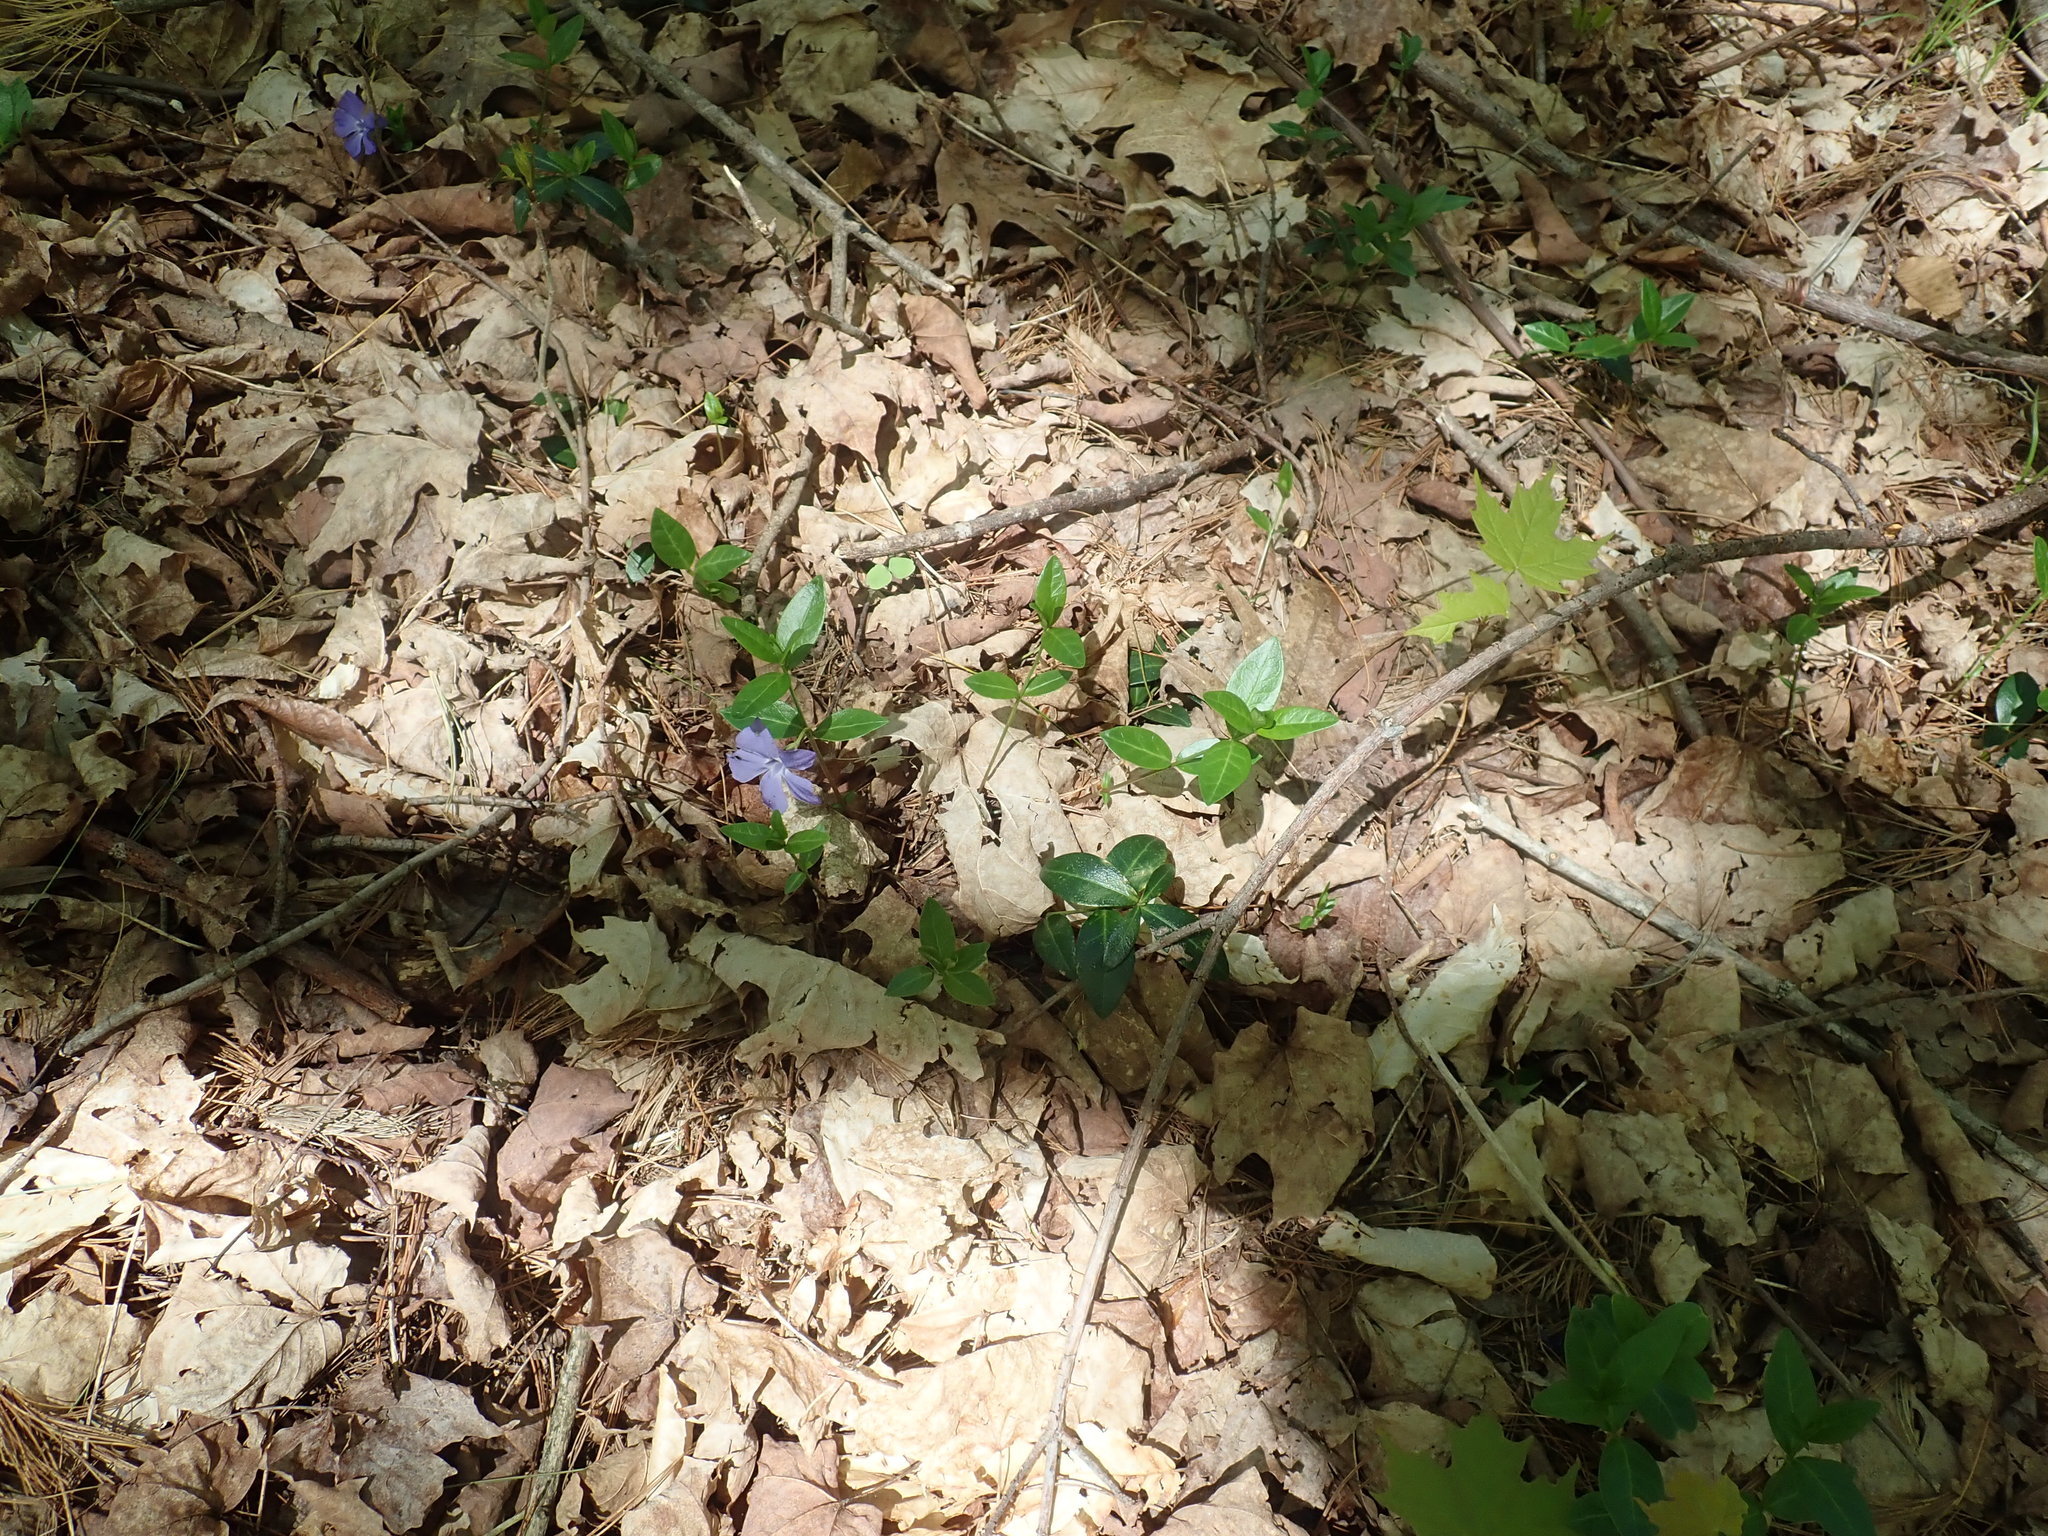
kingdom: Plantae
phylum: Tracheophyta
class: Magnoliopsida
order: Gentianales
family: Apocynaceae
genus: Vinca
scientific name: Vinca minor
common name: Lesser periwinkle
